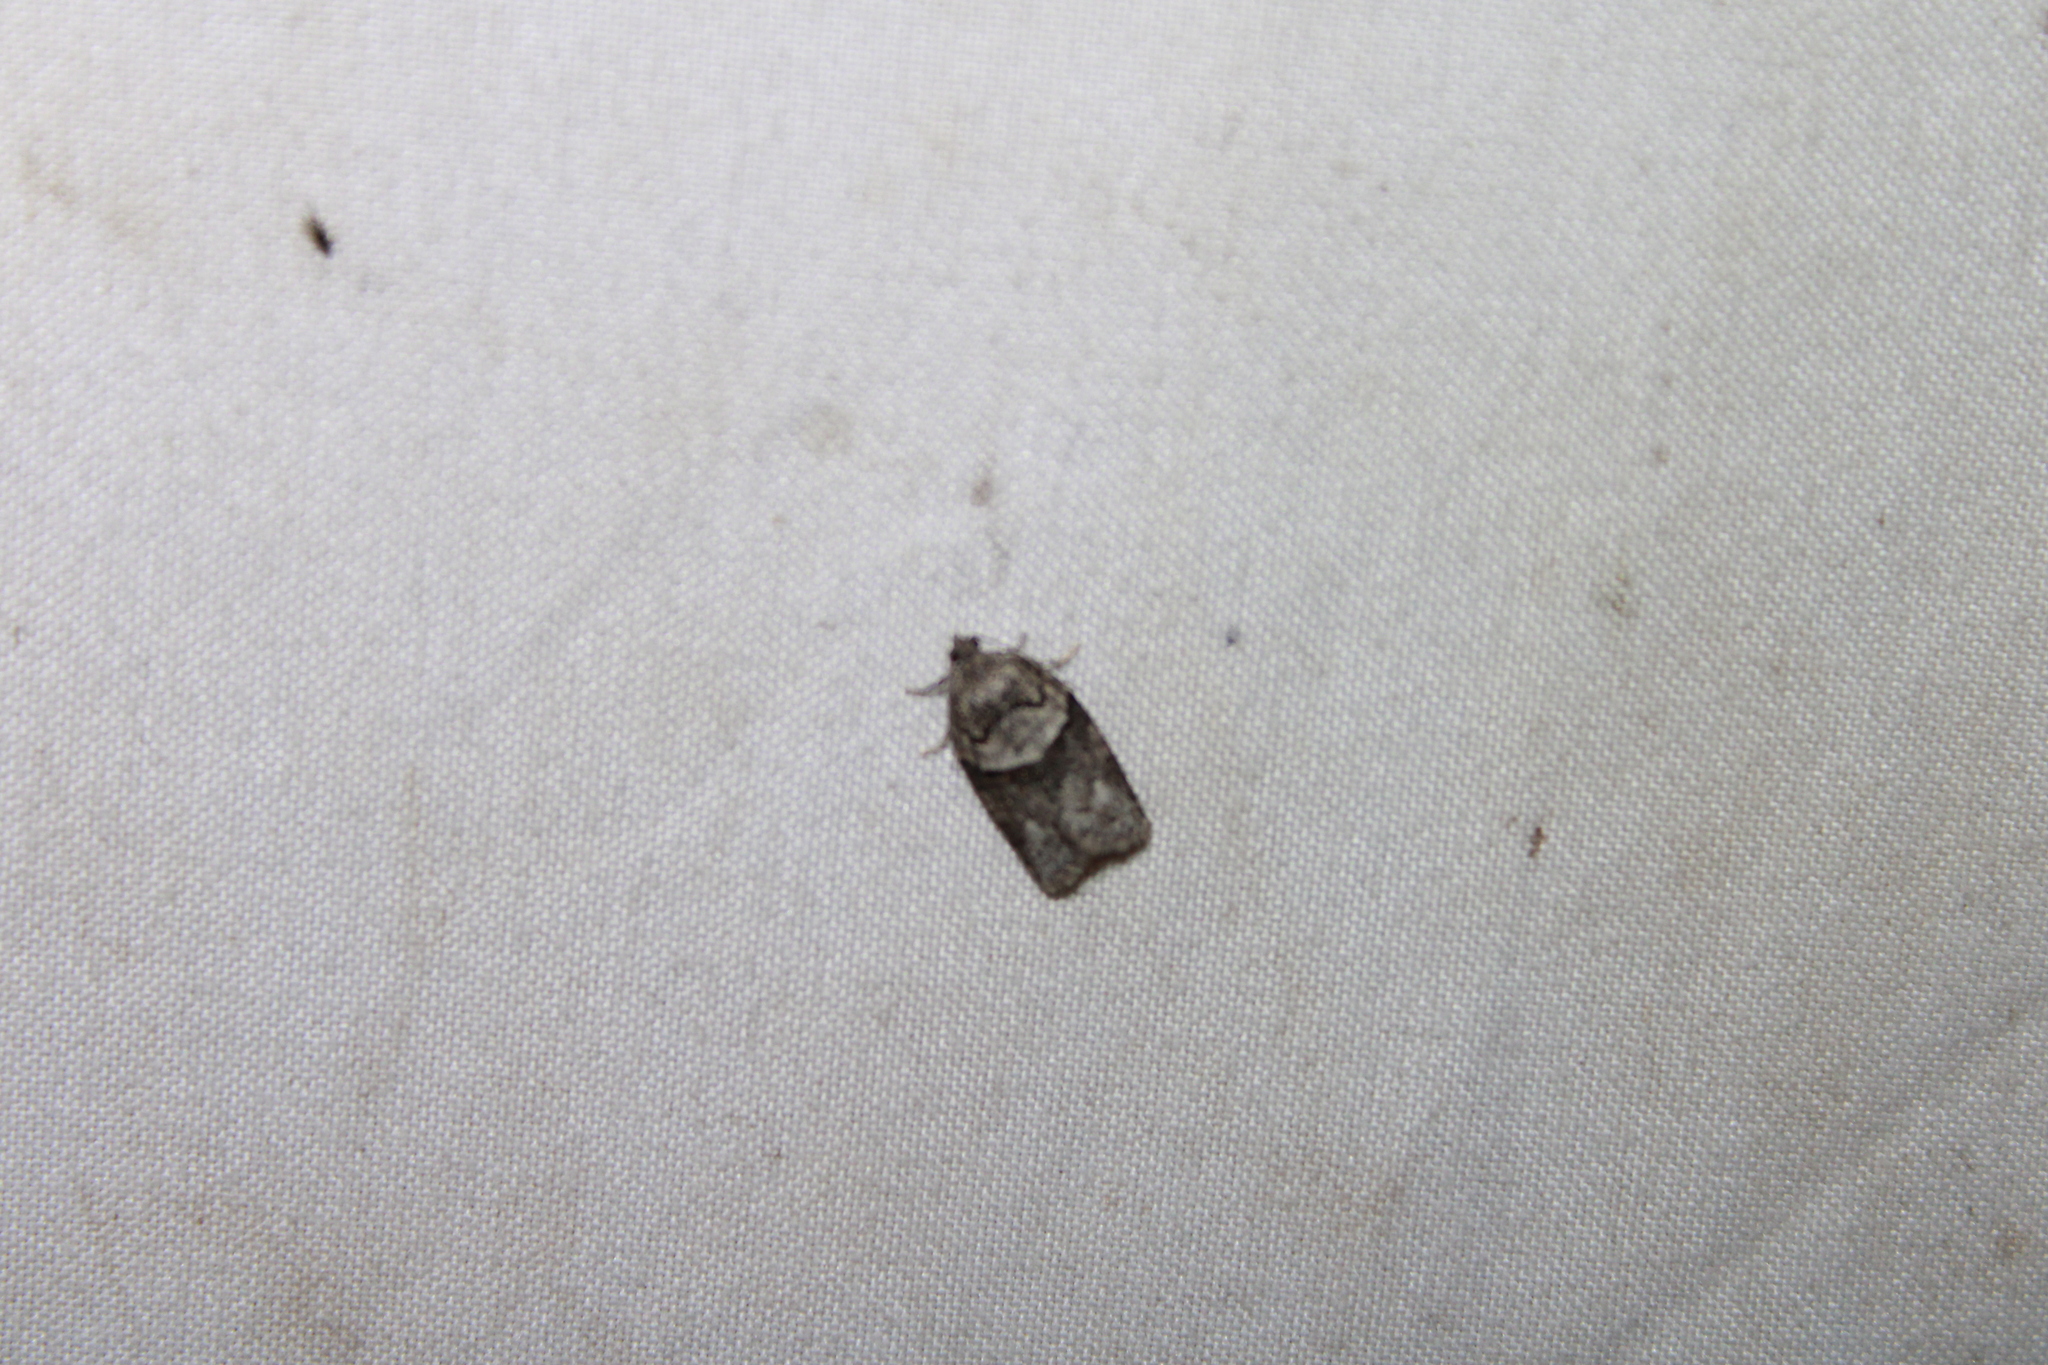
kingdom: Animalia
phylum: Arthropoda
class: Insecta
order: Lepidoptera
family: Tortricidae
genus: Syndemis
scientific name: Syndemis afflictana
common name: Gray leafroller moth
